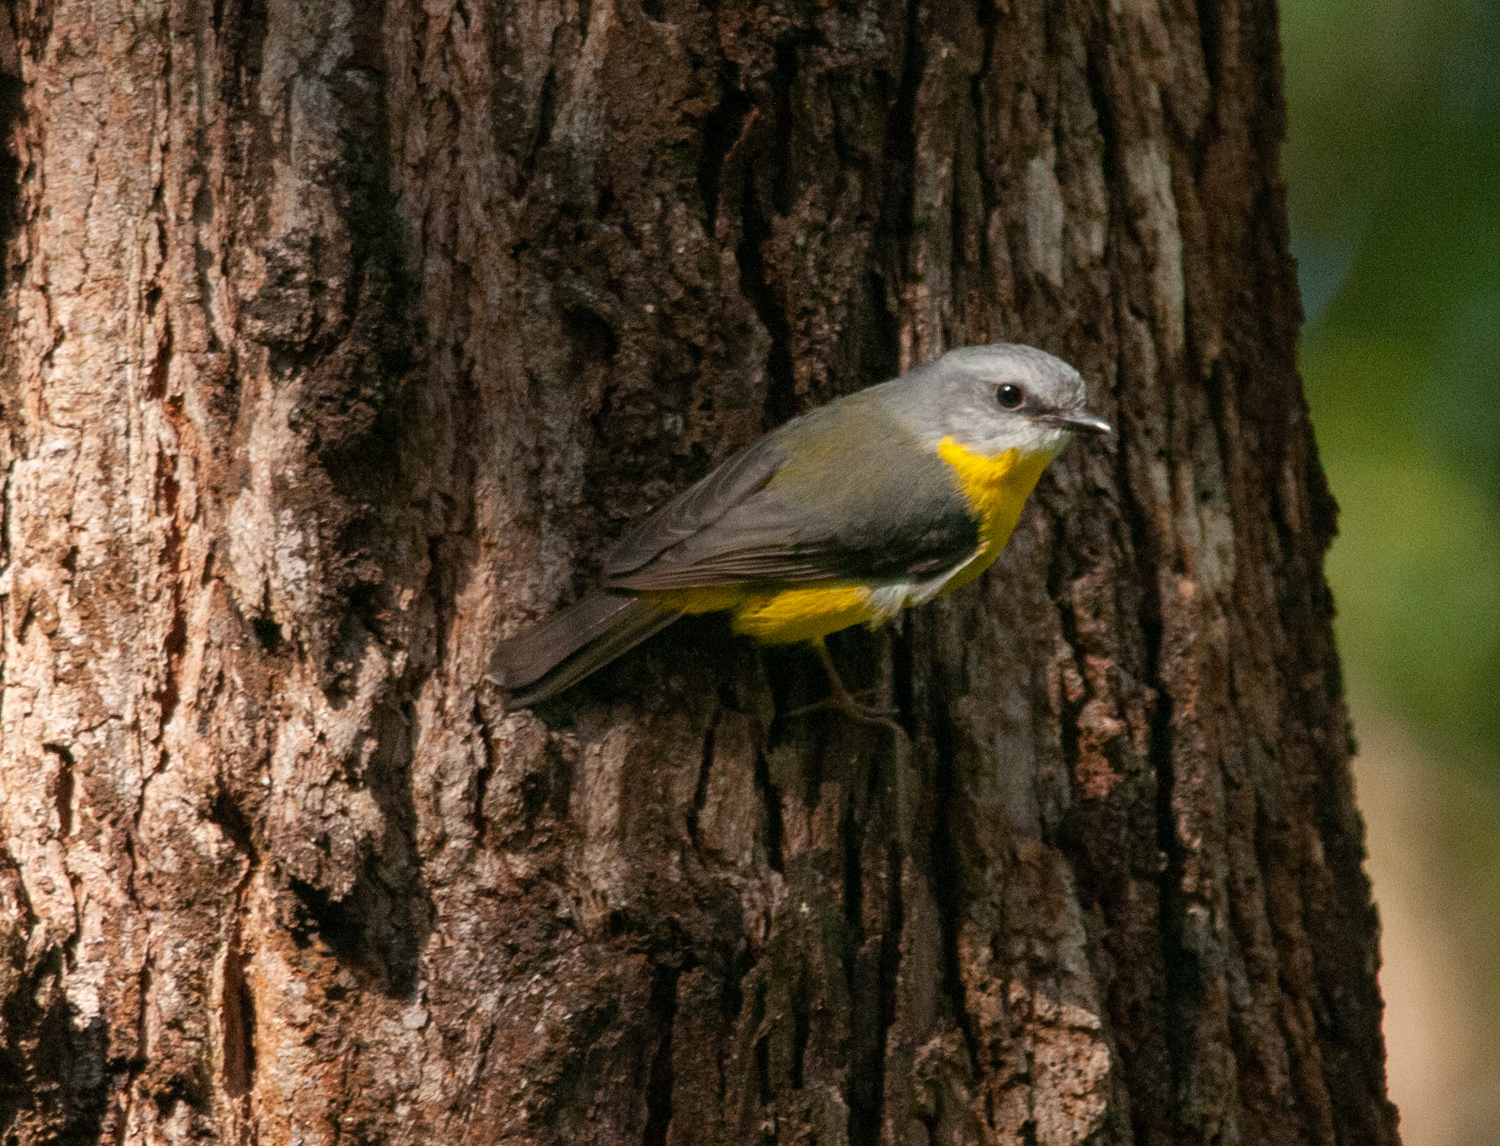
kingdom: Animalia
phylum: Chordata
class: Aves
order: Passeriformes
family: Petroicidae
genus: Eopsaltria
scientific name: Eopsaltria australis
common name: Eastern yellow robin
